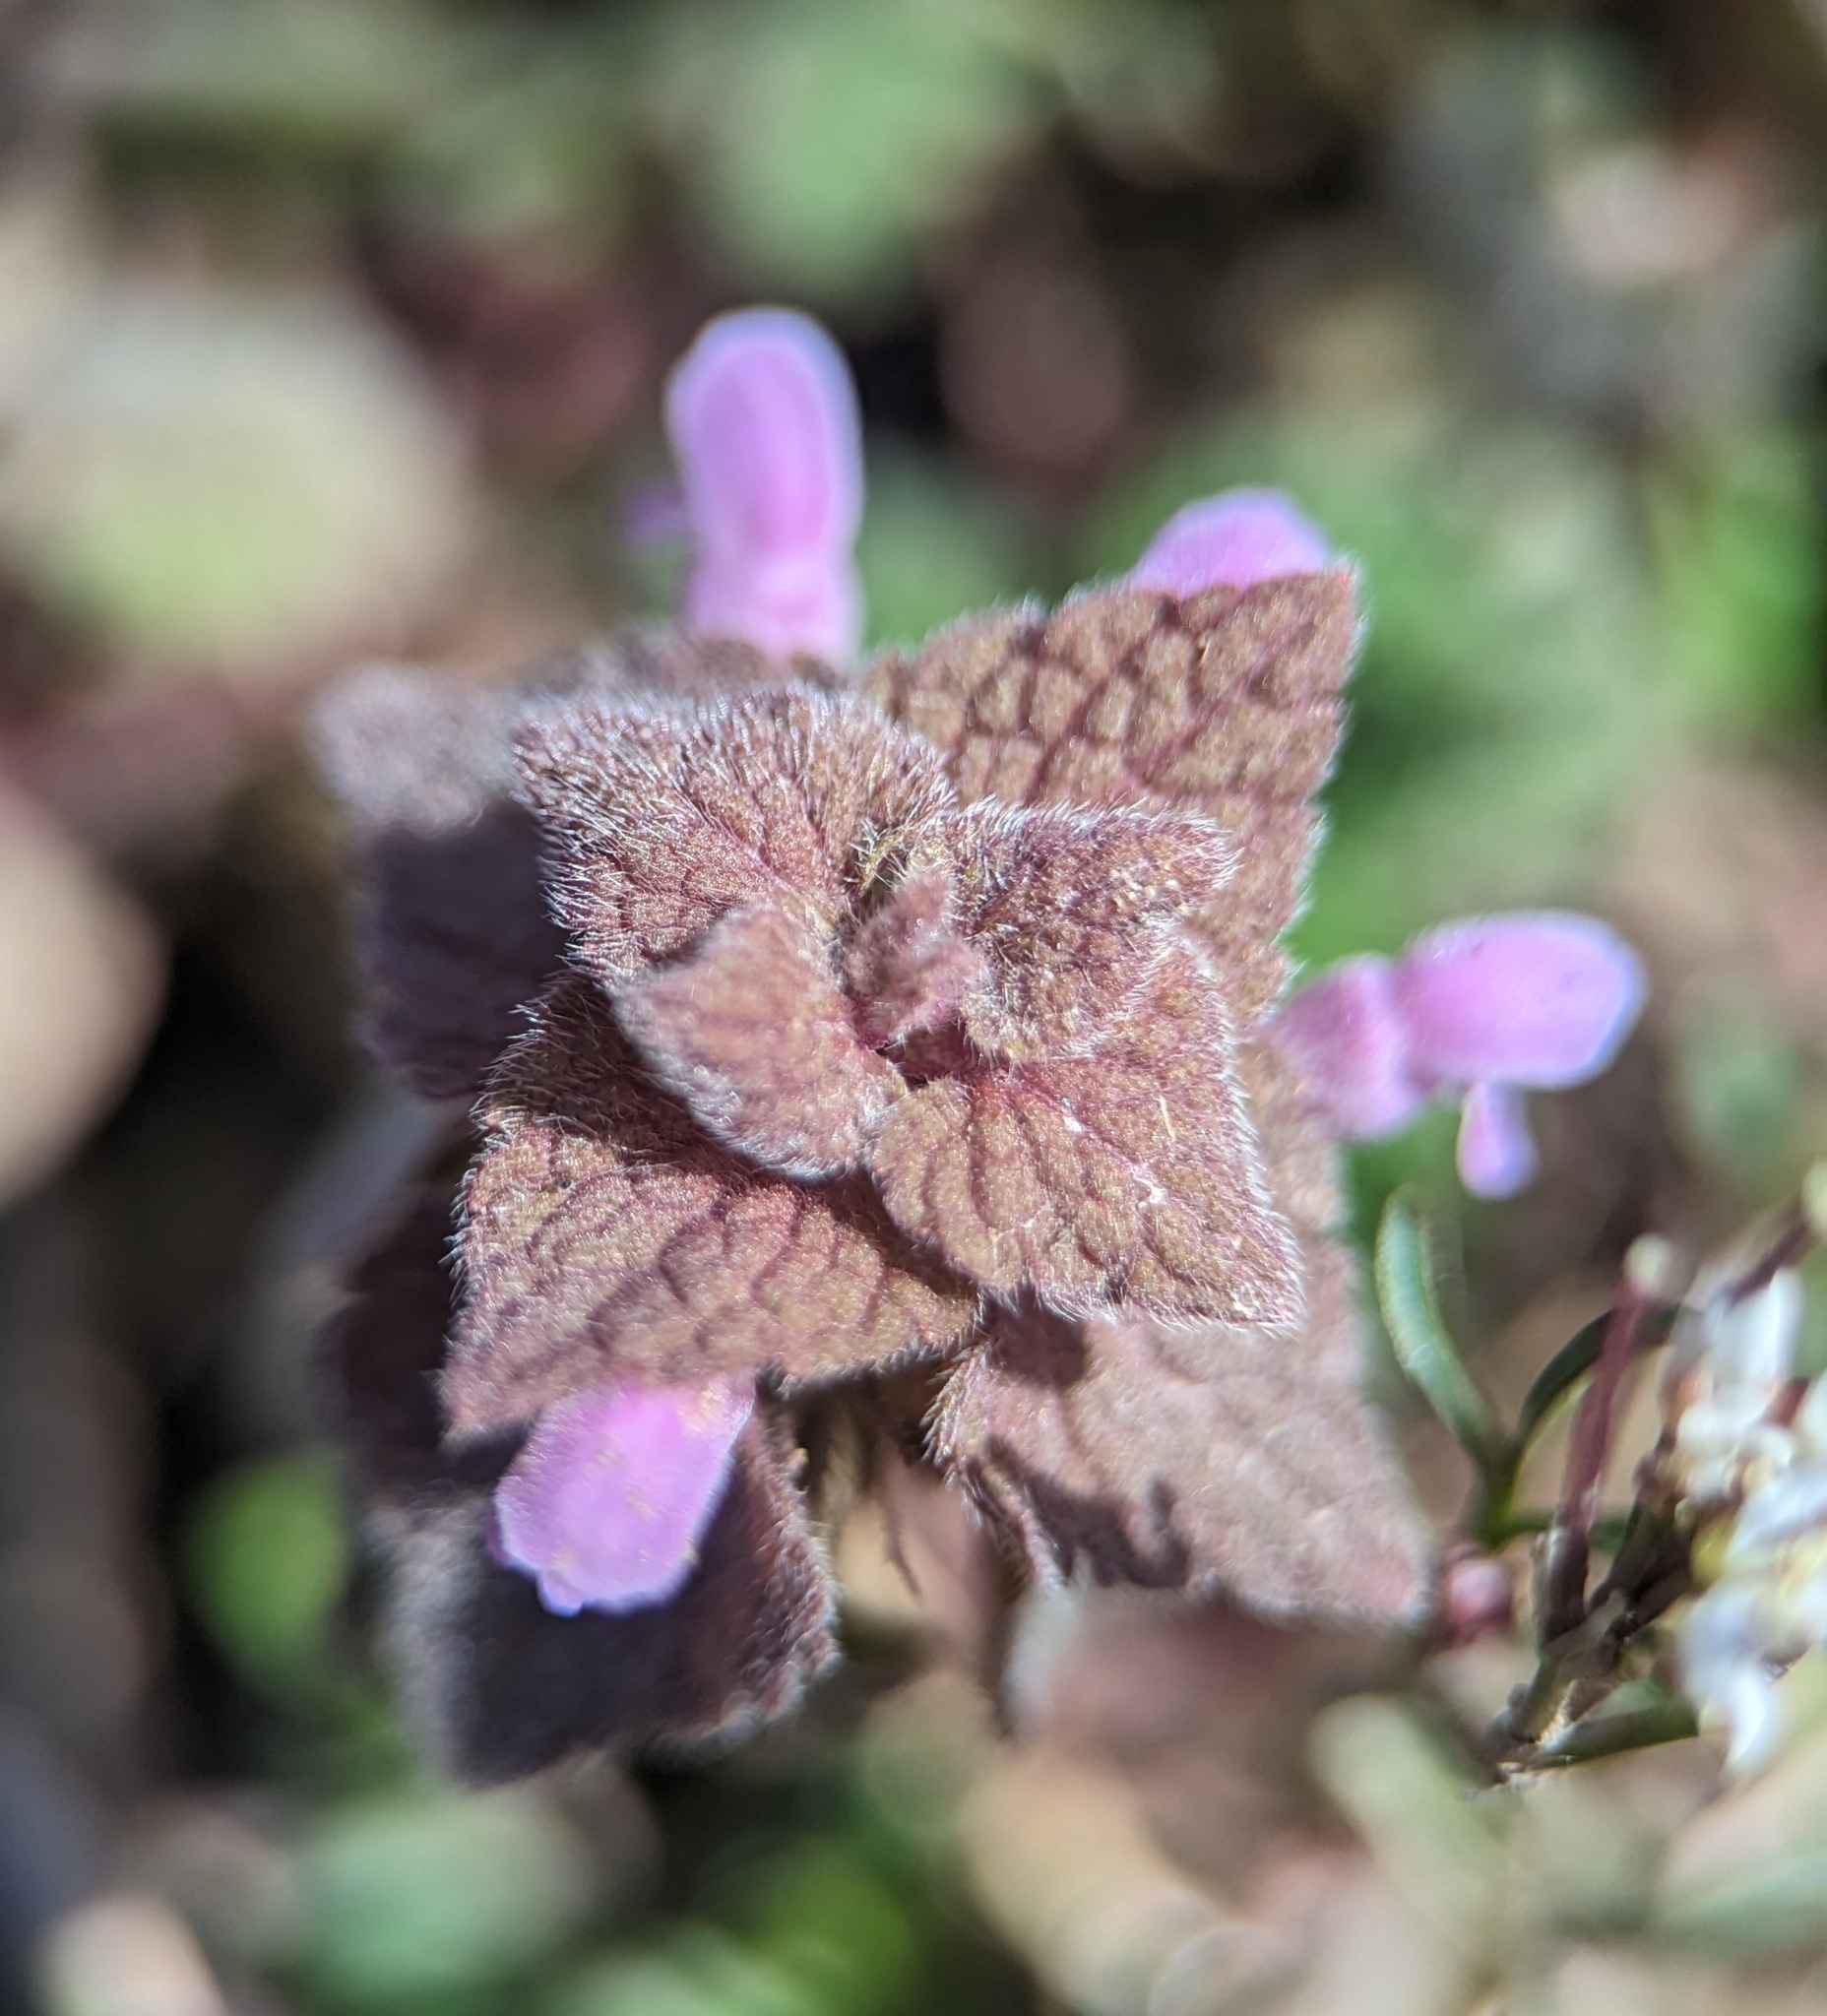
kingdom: Plantae
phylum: Tracheophyta
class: Magnoliopsida
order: Lamiales
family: Lamiaceae
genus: Lamium
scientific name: Lamium purpureum
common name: Red dead-nettle
